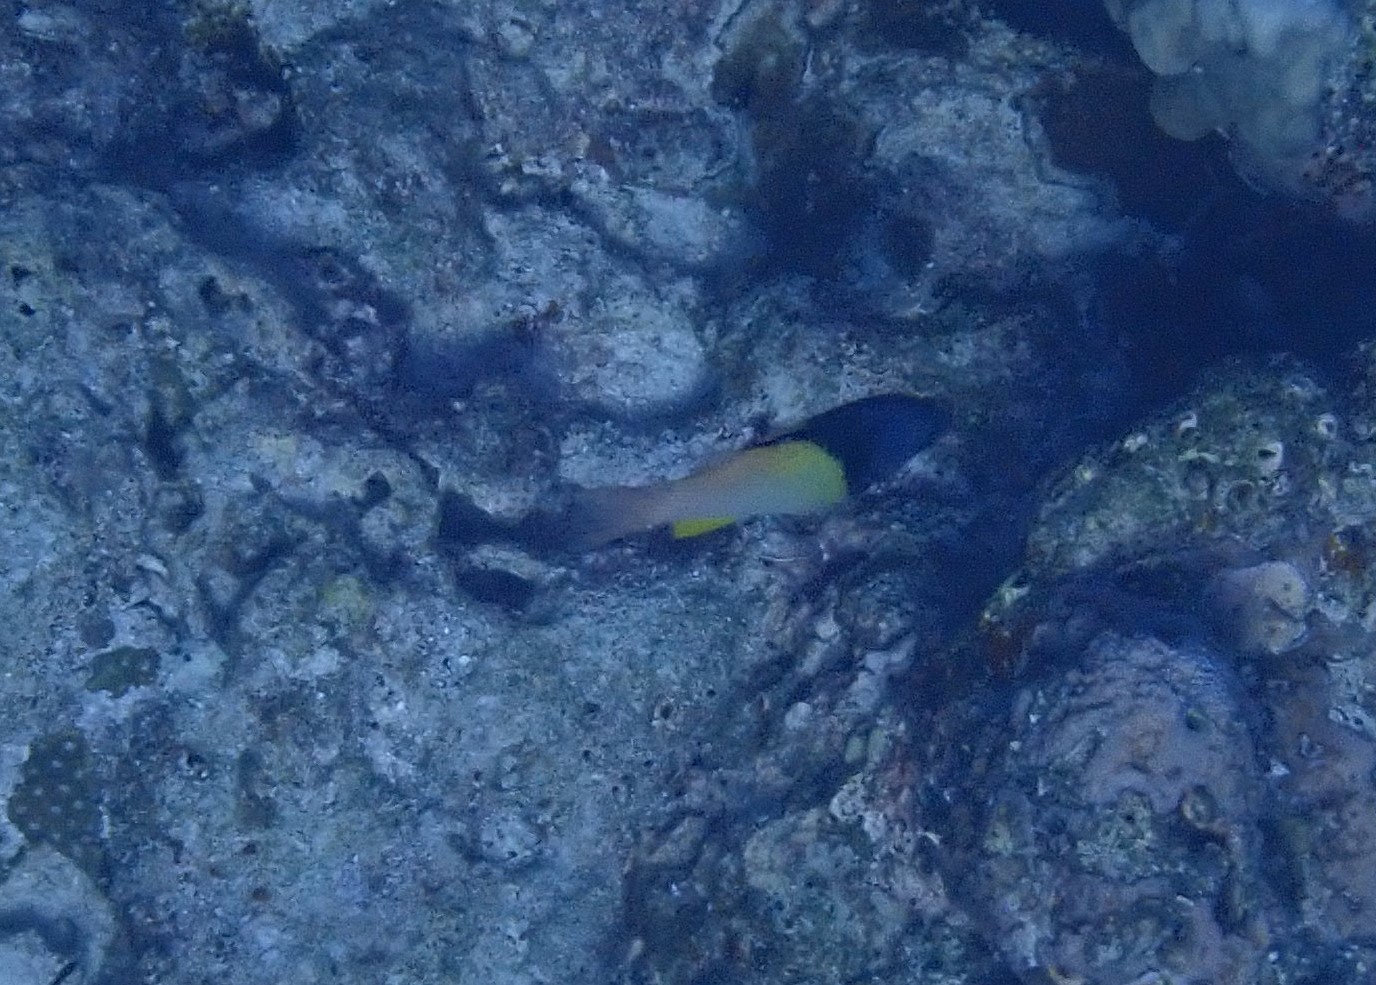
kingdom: Animalia
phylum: Chordata
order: Perciformes
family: Labridae
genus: Bodianus
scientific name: Bodianus mesothorax
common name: Coral hogfish
